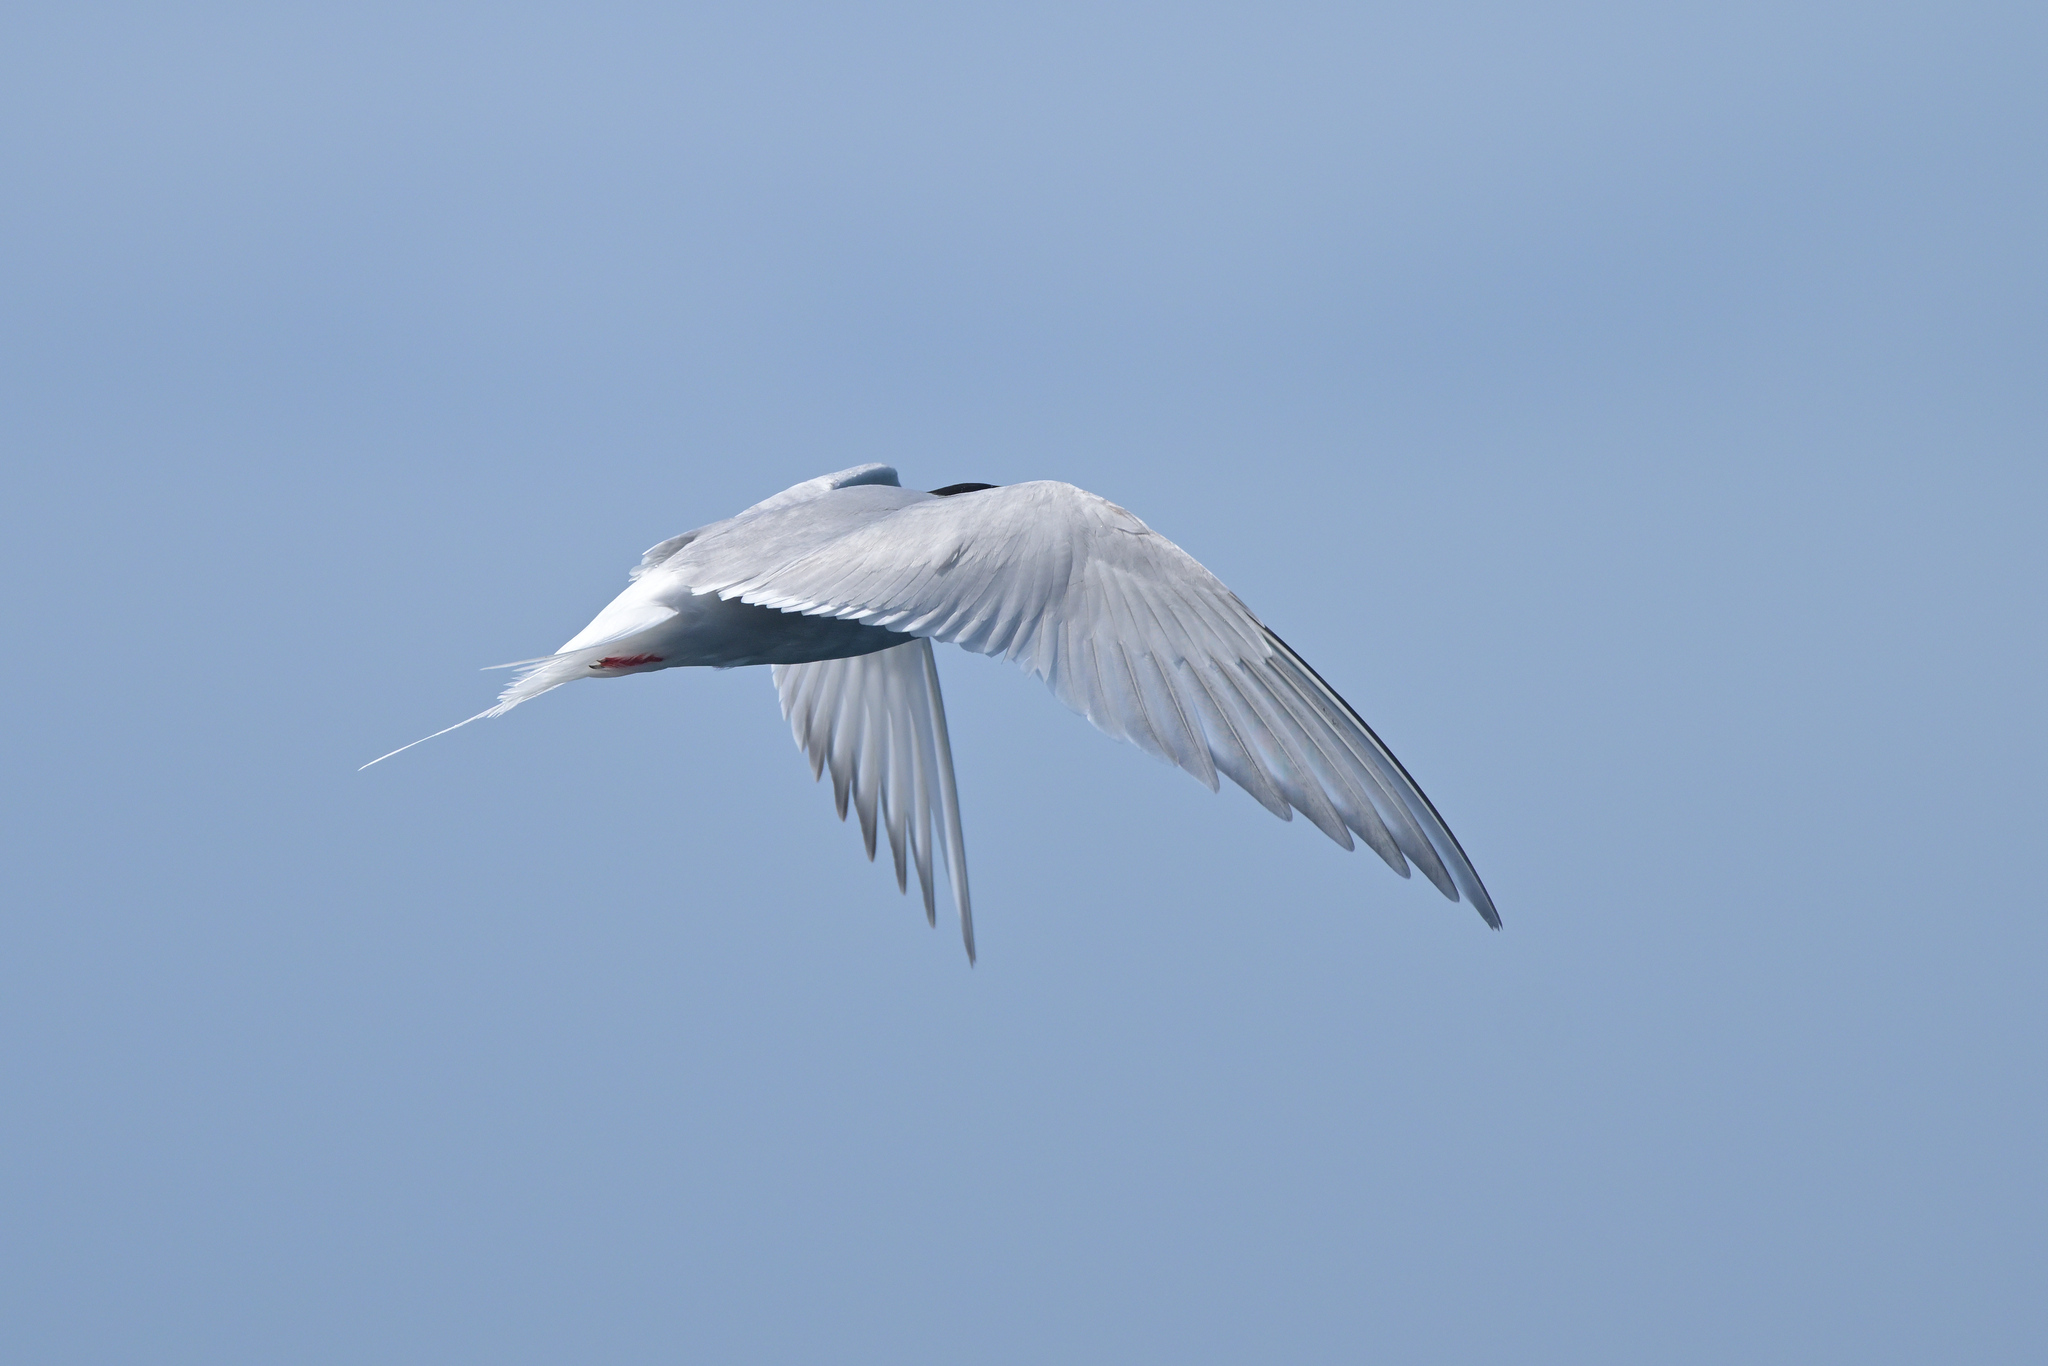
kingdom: Animalia
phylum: Chordata
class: Aves
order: Charadriiformes
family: Laridae
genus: Sterna
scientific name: Sterna vittata
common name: Antarctic tern
